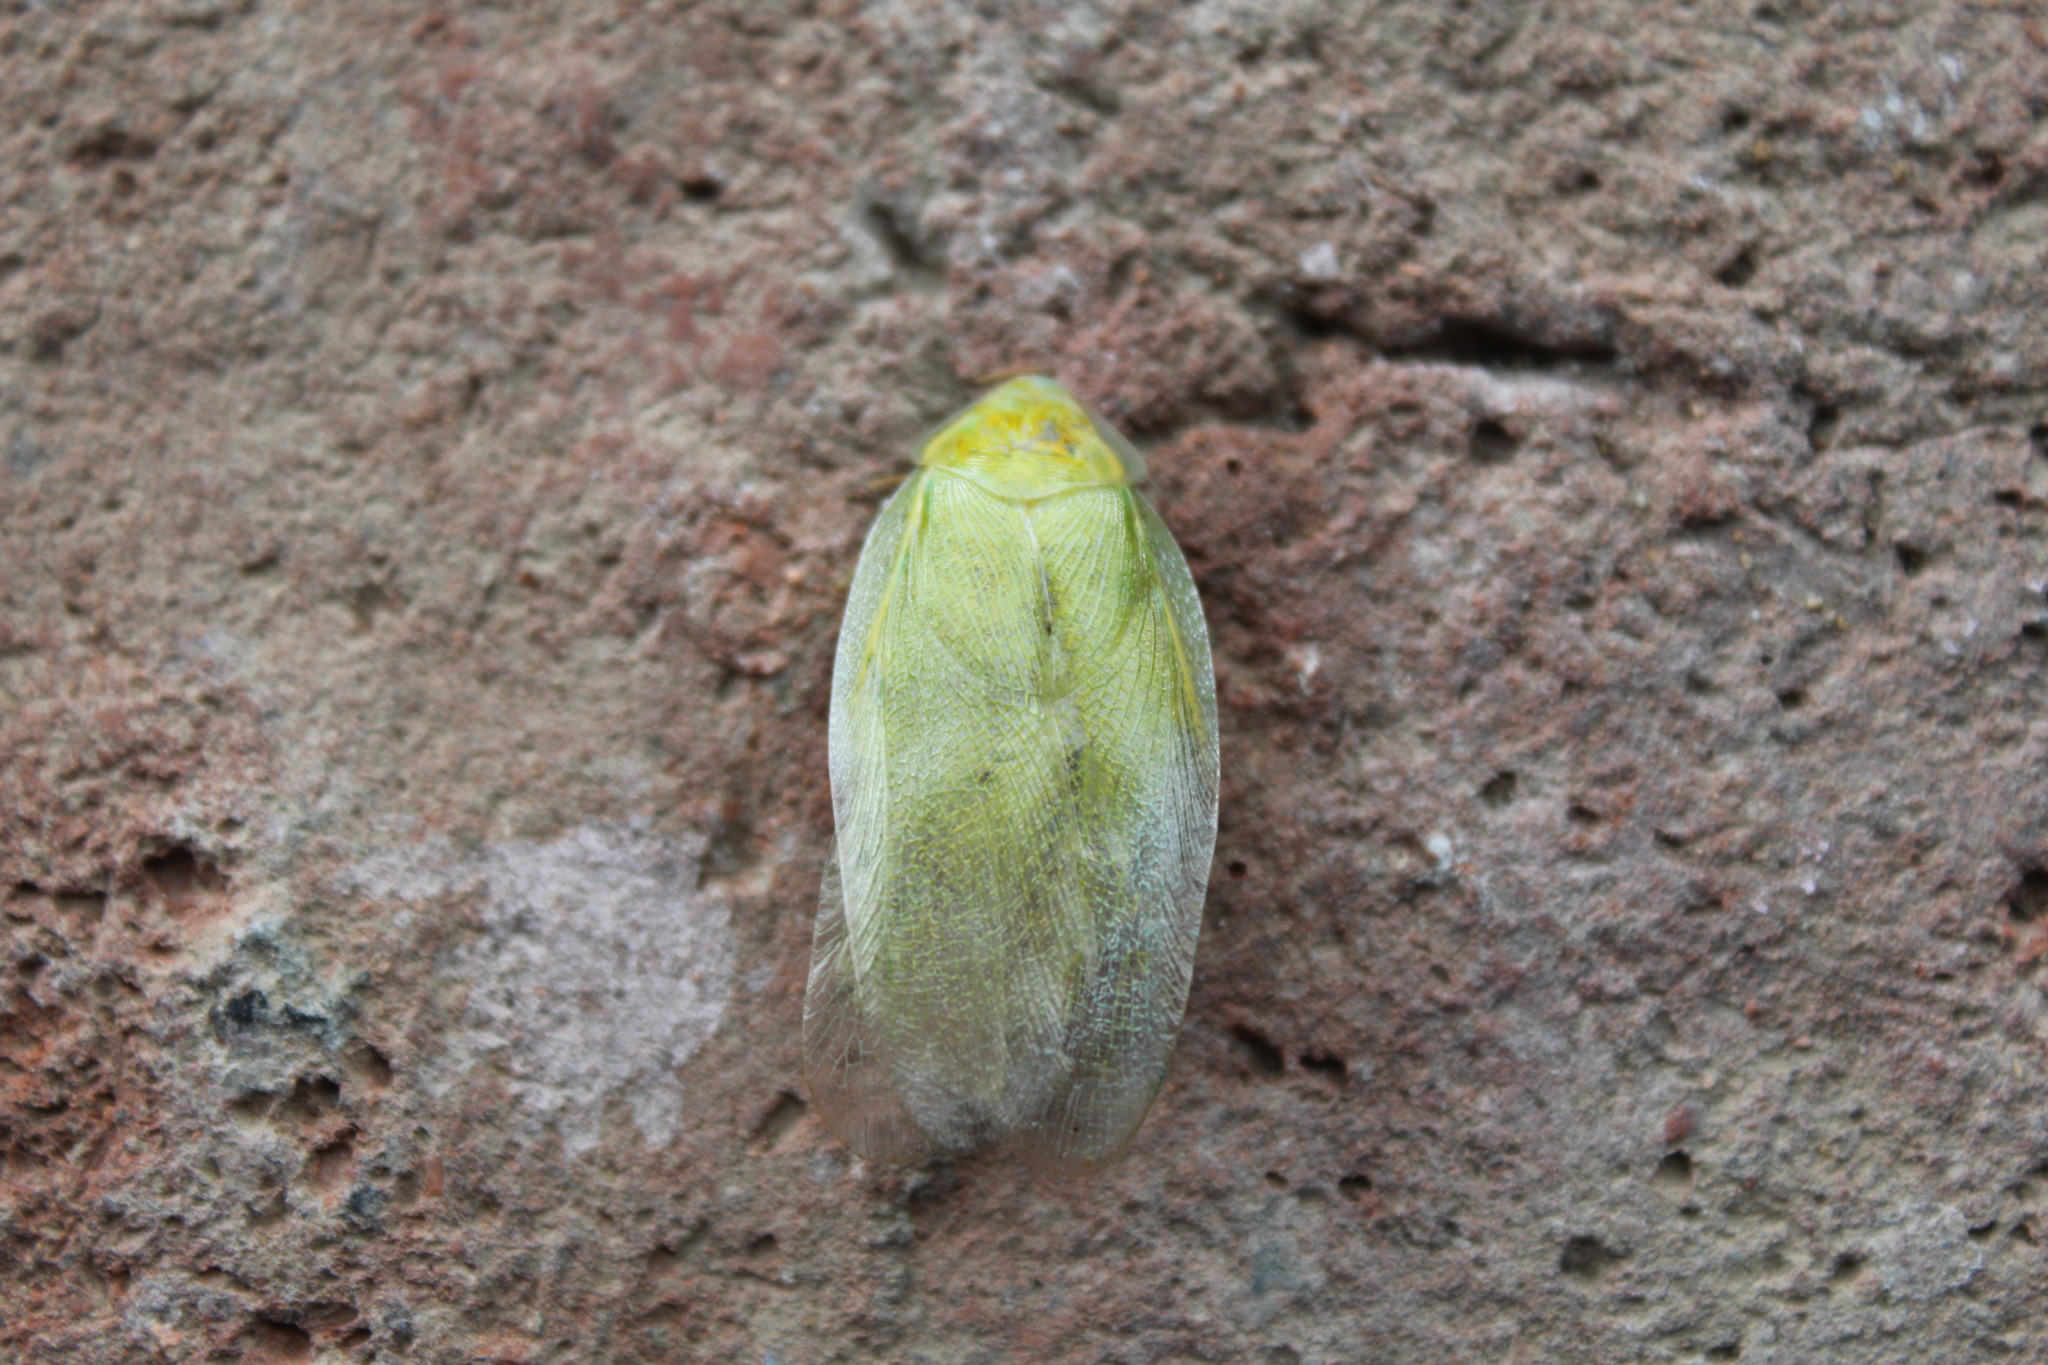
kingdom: Animalia
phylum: Arthropoda
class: Insecta
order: Blattodea
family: Blaberidae
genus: Panchlora
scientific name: Panchlora nivea
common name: Cuban cockroach
